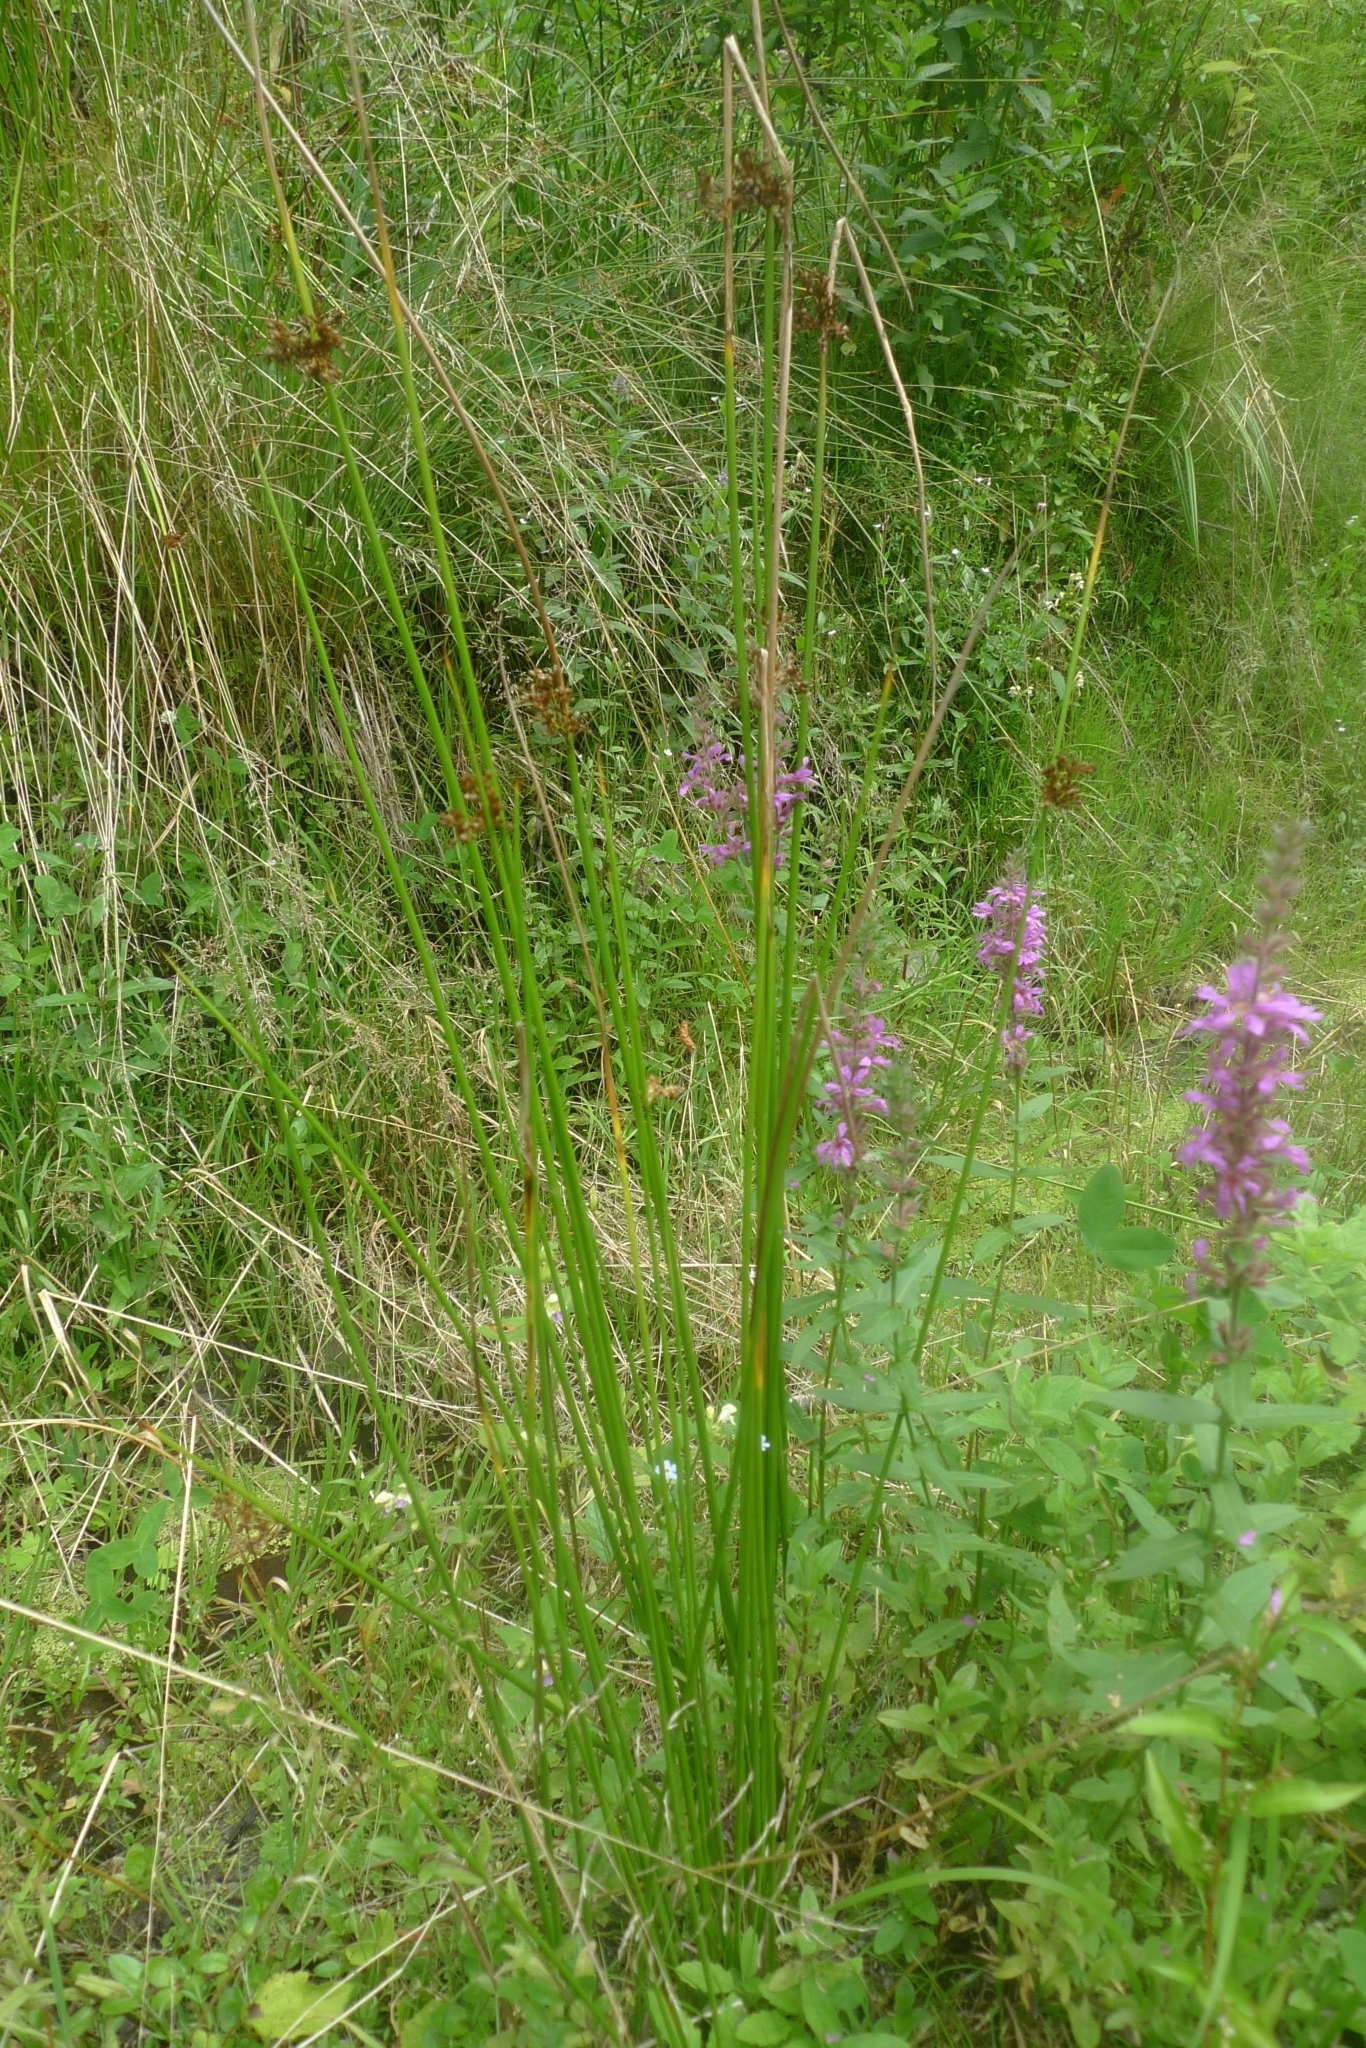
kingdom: Plantae
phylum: Tracheophyta
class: Liliopsida
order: Poales
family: Juncaceae
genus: Juncus
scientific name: Juncus effusus
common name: Soft rush
